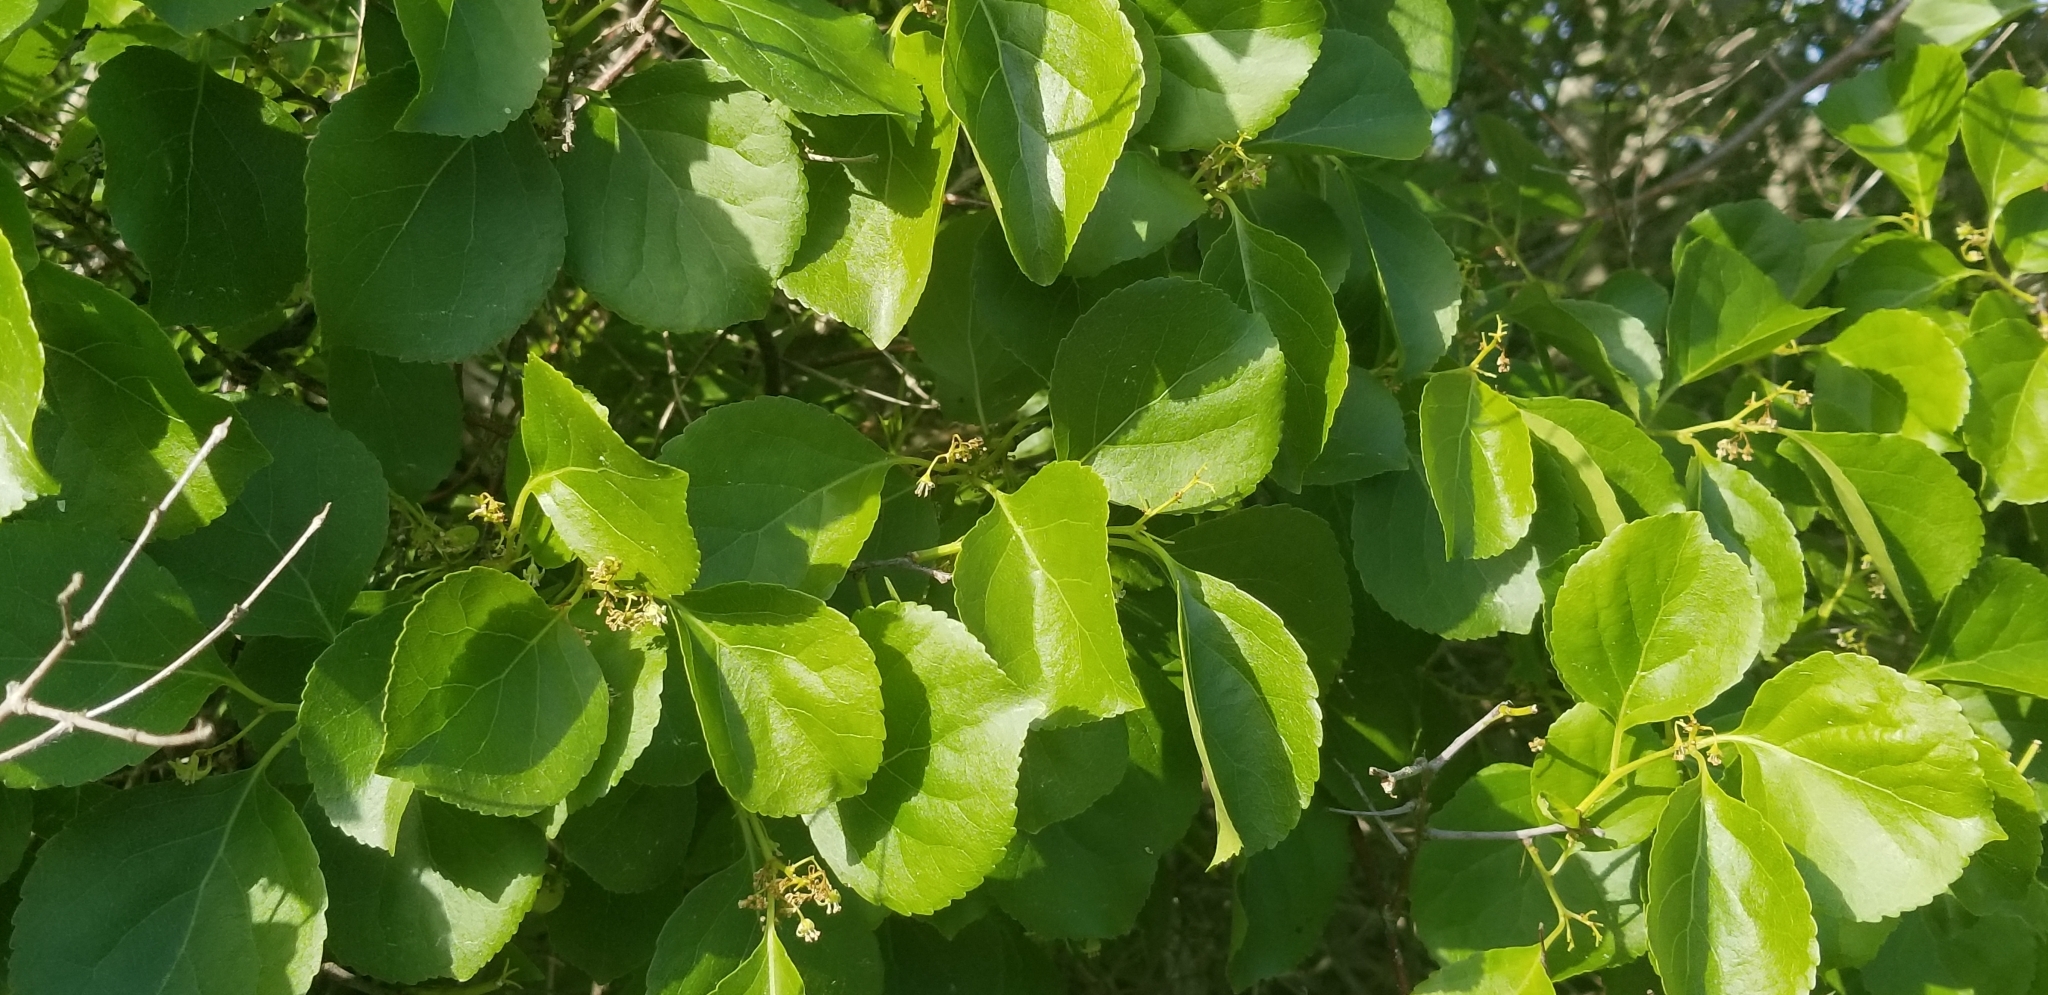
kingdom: Plantae
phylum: Tracheophyta
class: Magnoliopsida
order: Celastrales
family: Celastraceae
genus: Celastrus
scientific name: Celastrus orbiculatus
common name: Oriental bittersweet
